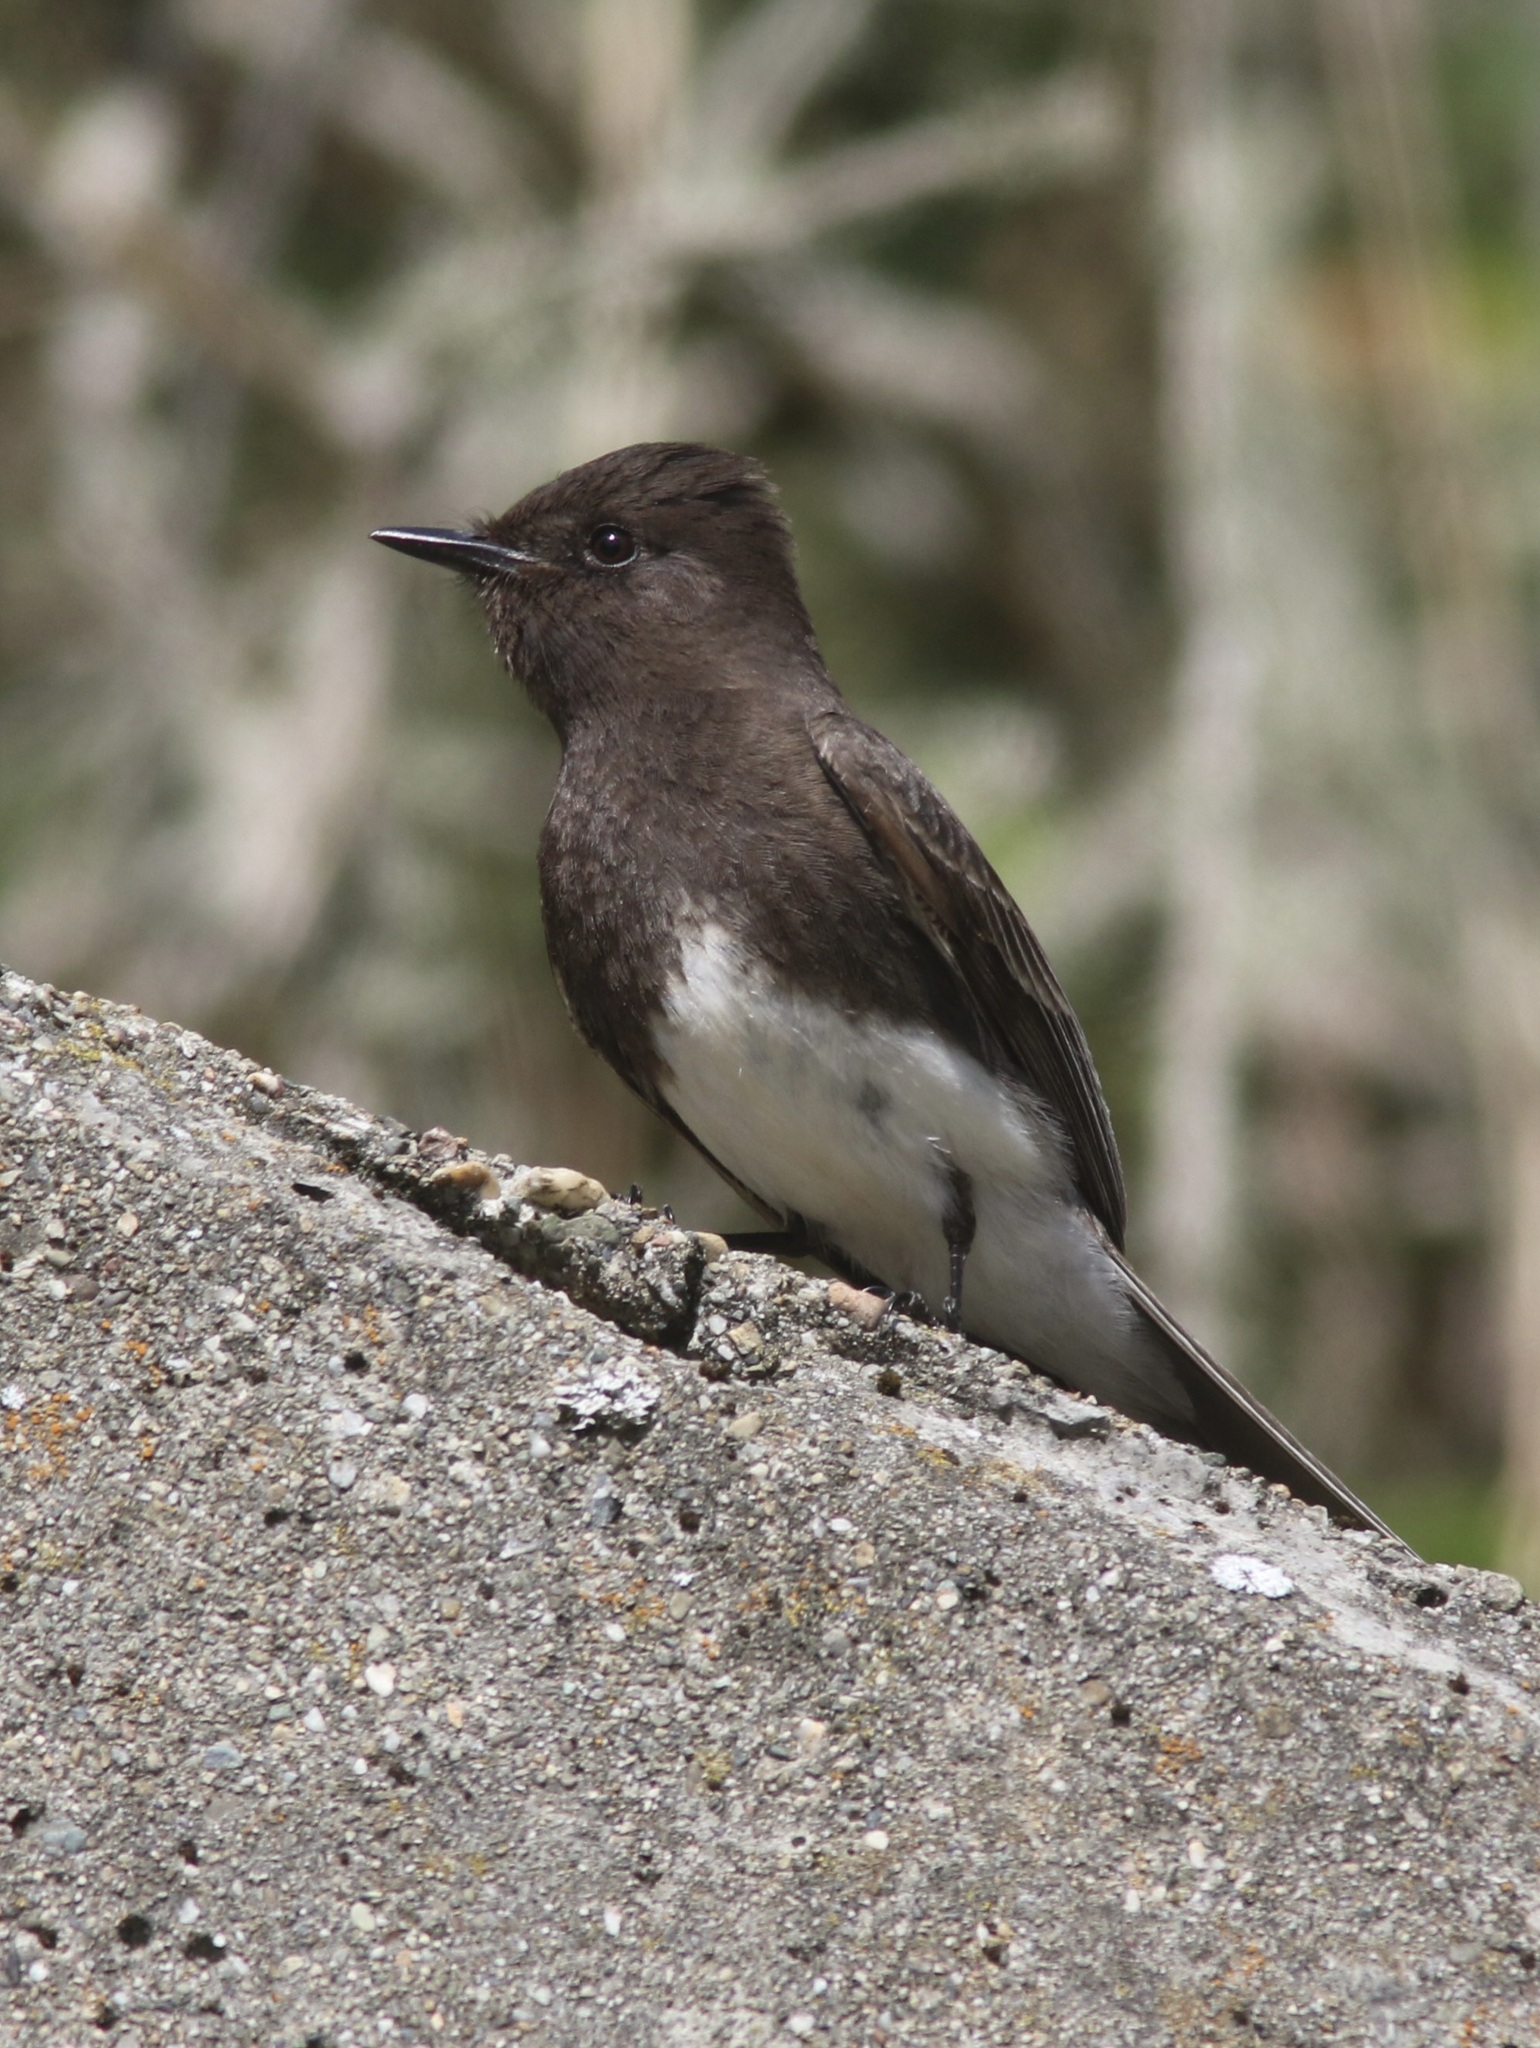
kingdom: Animalia
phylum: Chordata
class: Aves
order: Passeriformes
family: Tyrannidae
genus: Sayornis
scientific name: Sayornis nigricans
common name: Black phoebe
